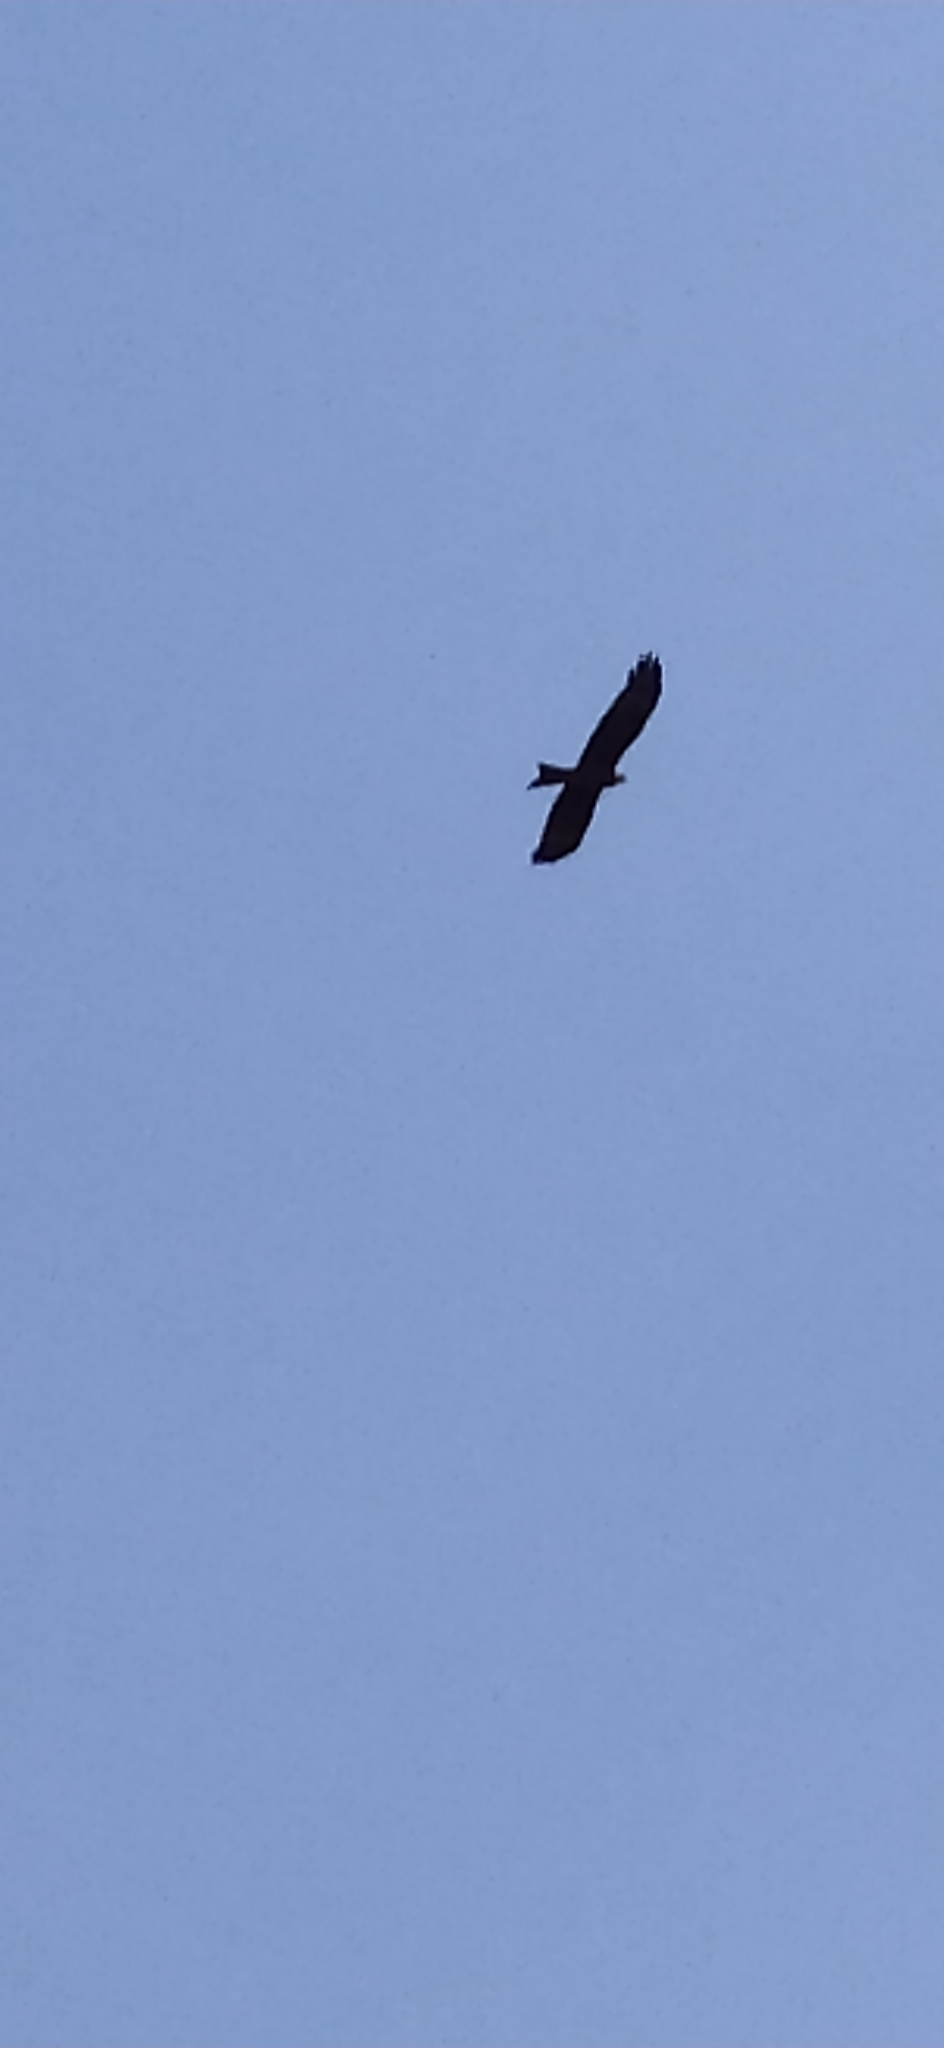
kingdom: Animalia
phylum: Chordata
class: Aves
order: Accipitriformes
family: Accipitridae
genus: Milvus
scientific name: Milvus migrans
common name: Black kite
